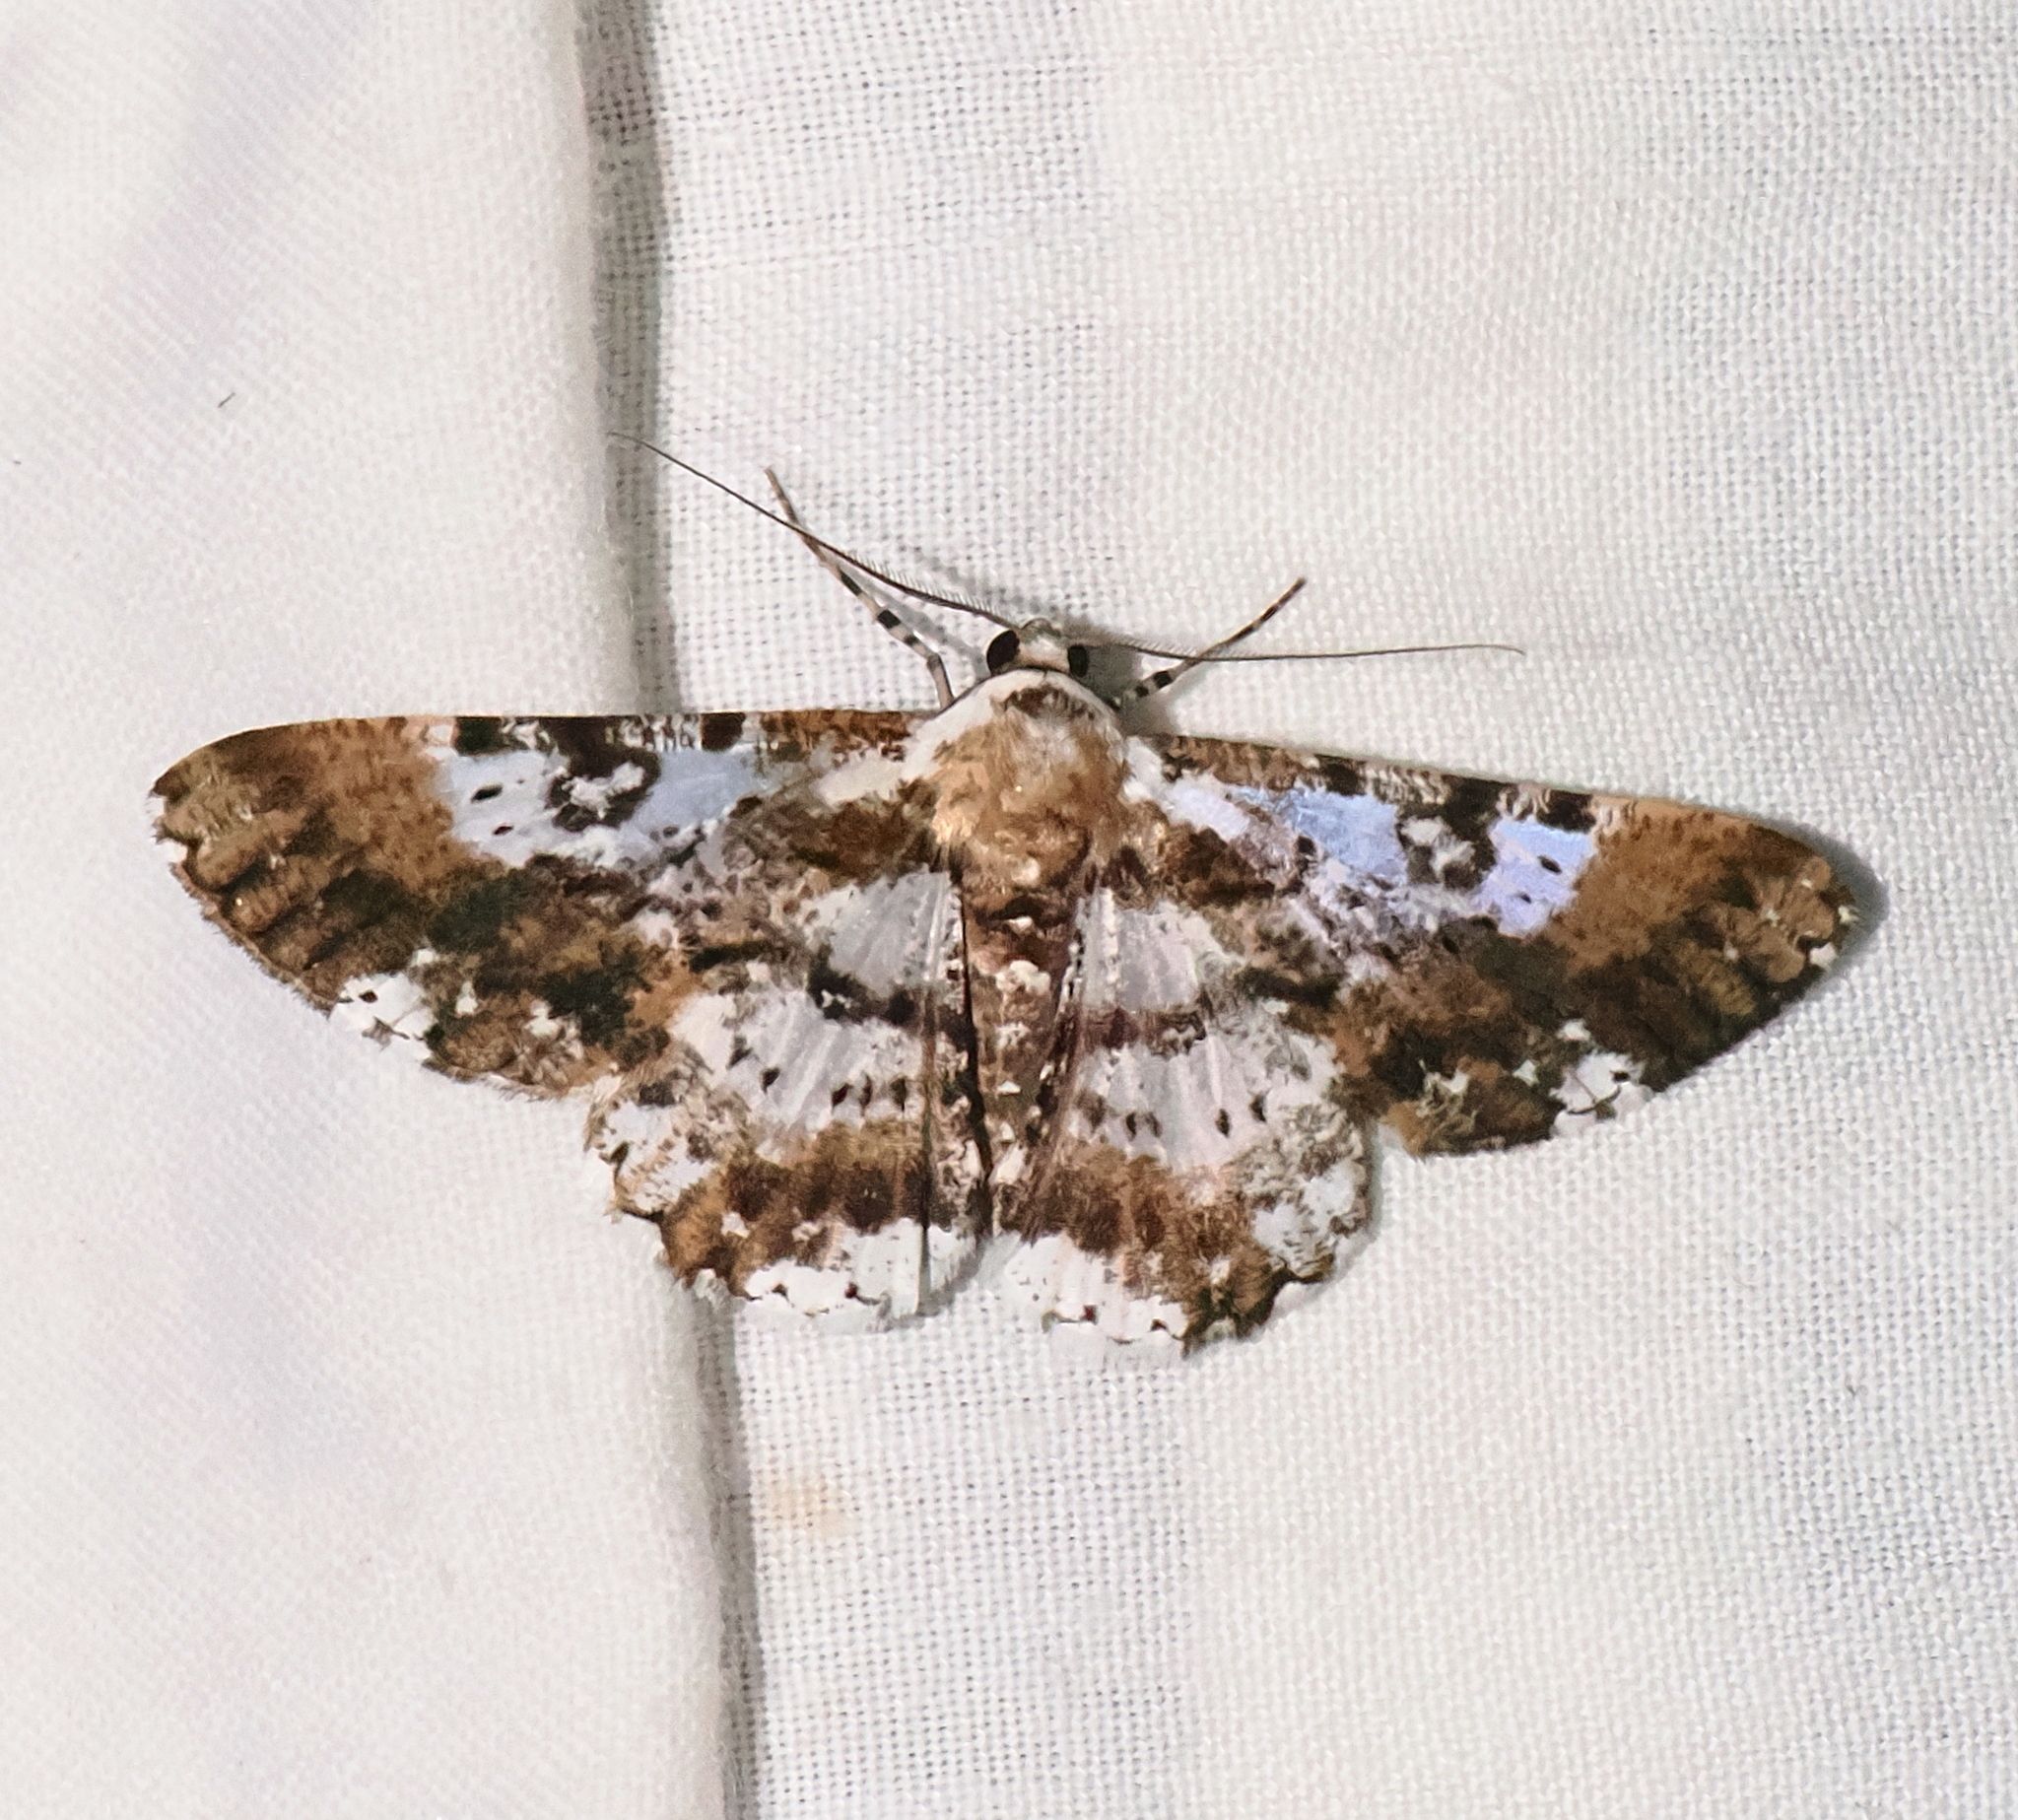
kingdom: Animalia
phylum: Arthropoda
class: Insecta
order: Lepidoptera
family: Geometridae
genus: Iridopsis
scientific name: Iridopsis validaria
